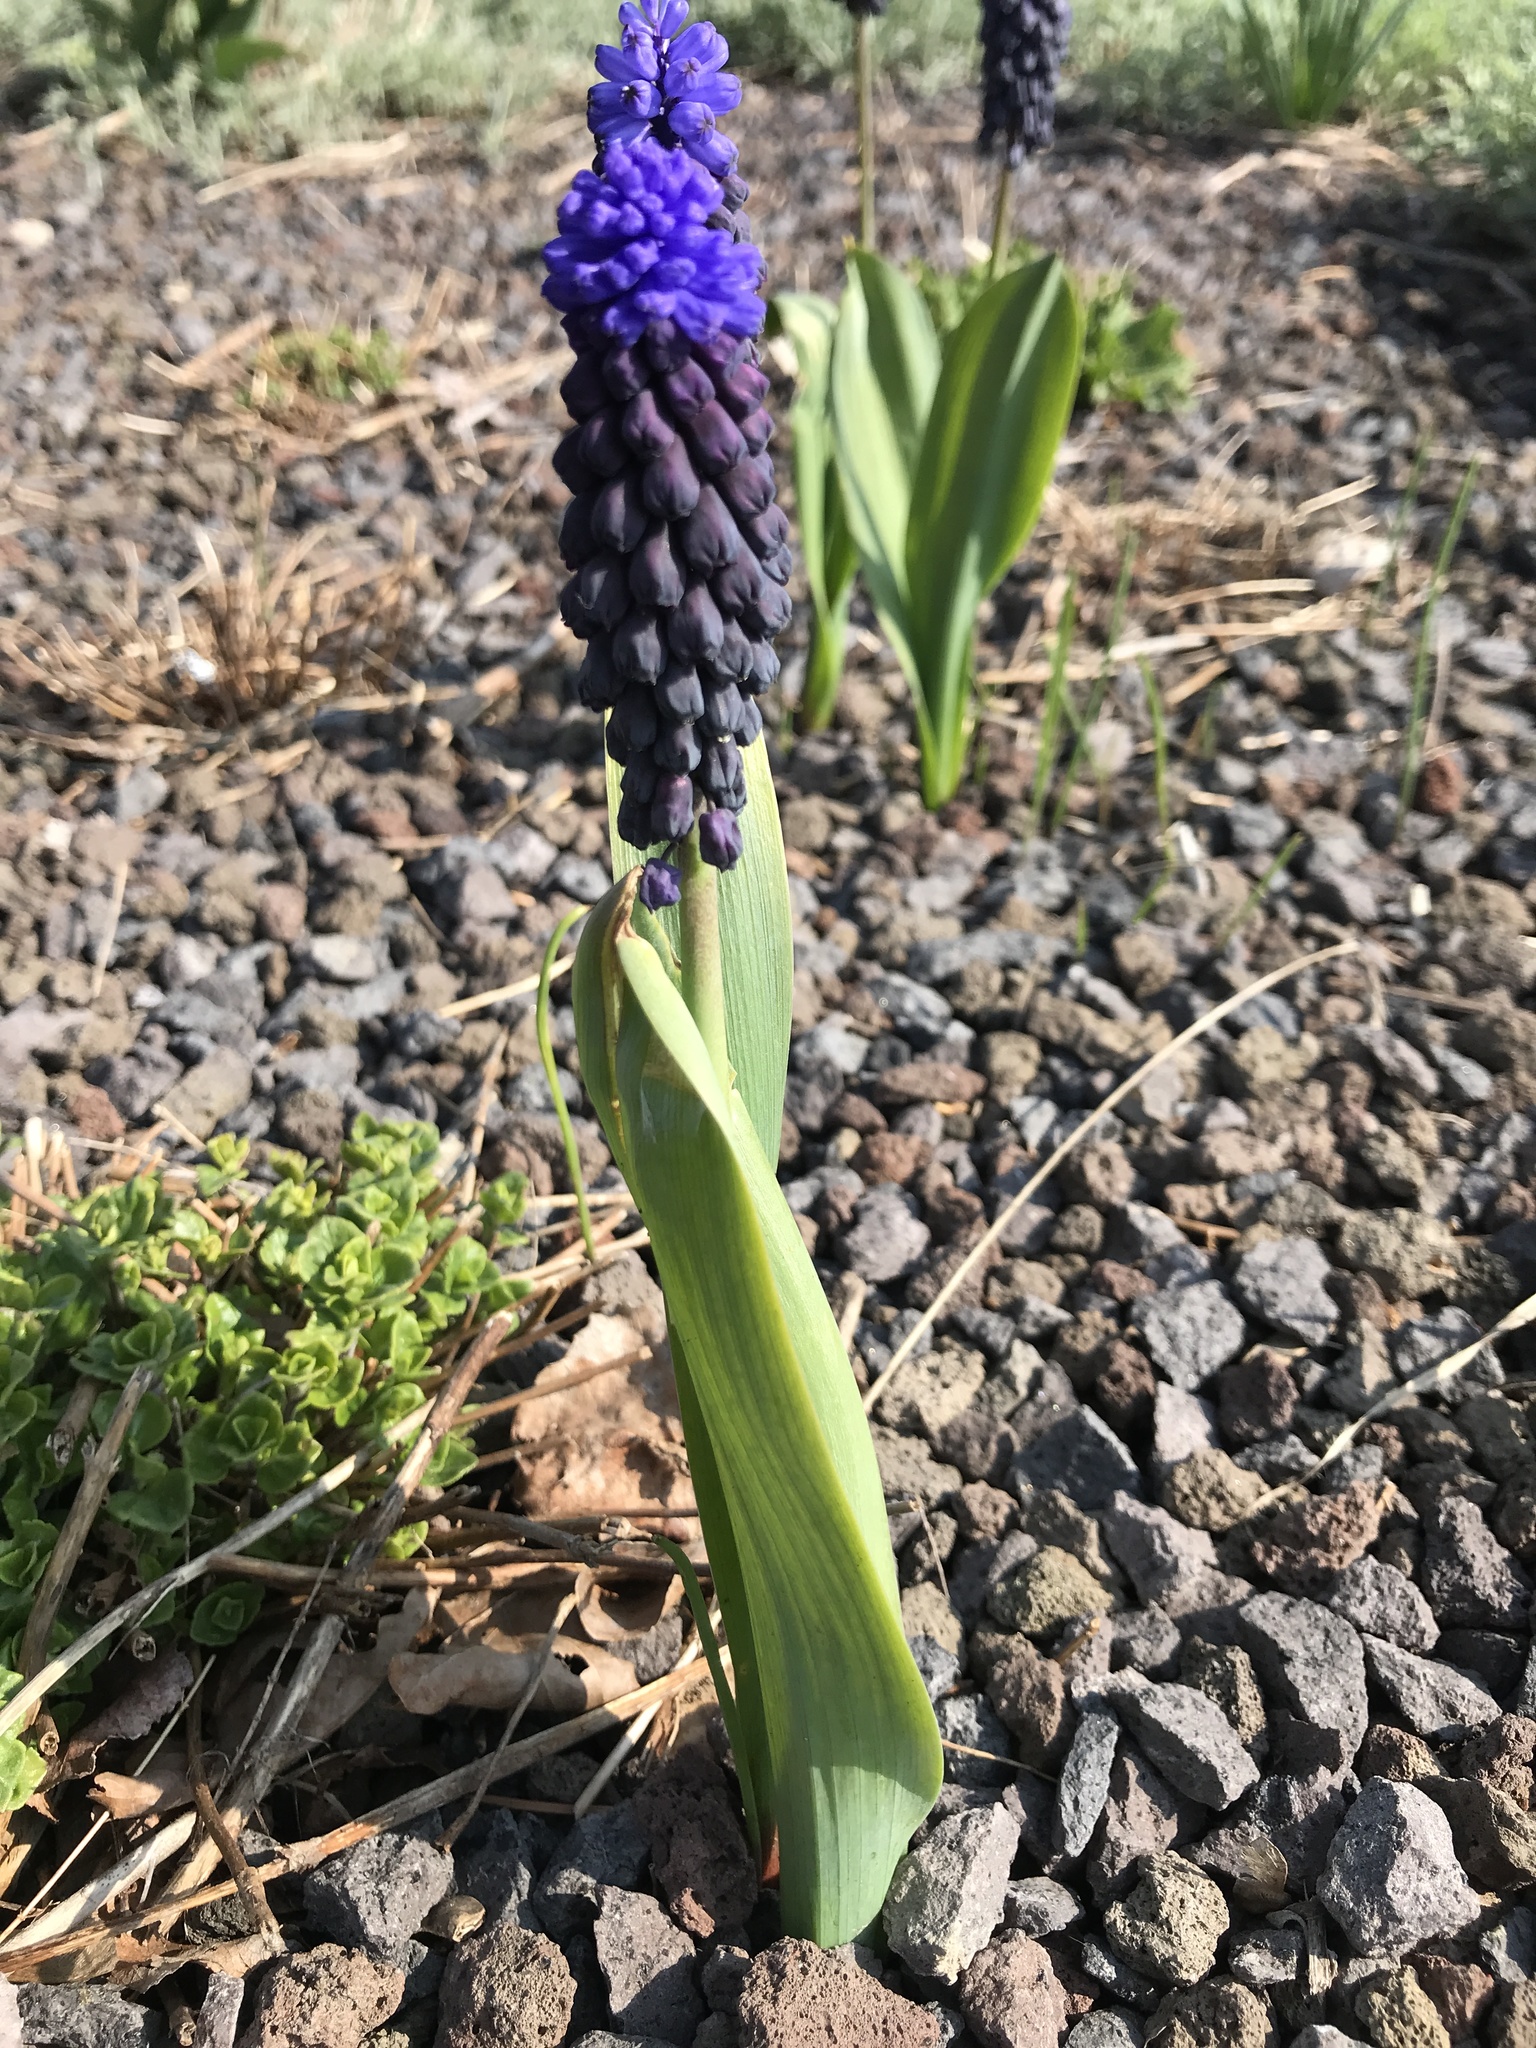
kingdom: Plantae
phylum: Tracheophyta
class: Liliopsida
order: Asparagales
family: Asparagaceae
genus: Muscari
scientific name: Muscari latifolium
